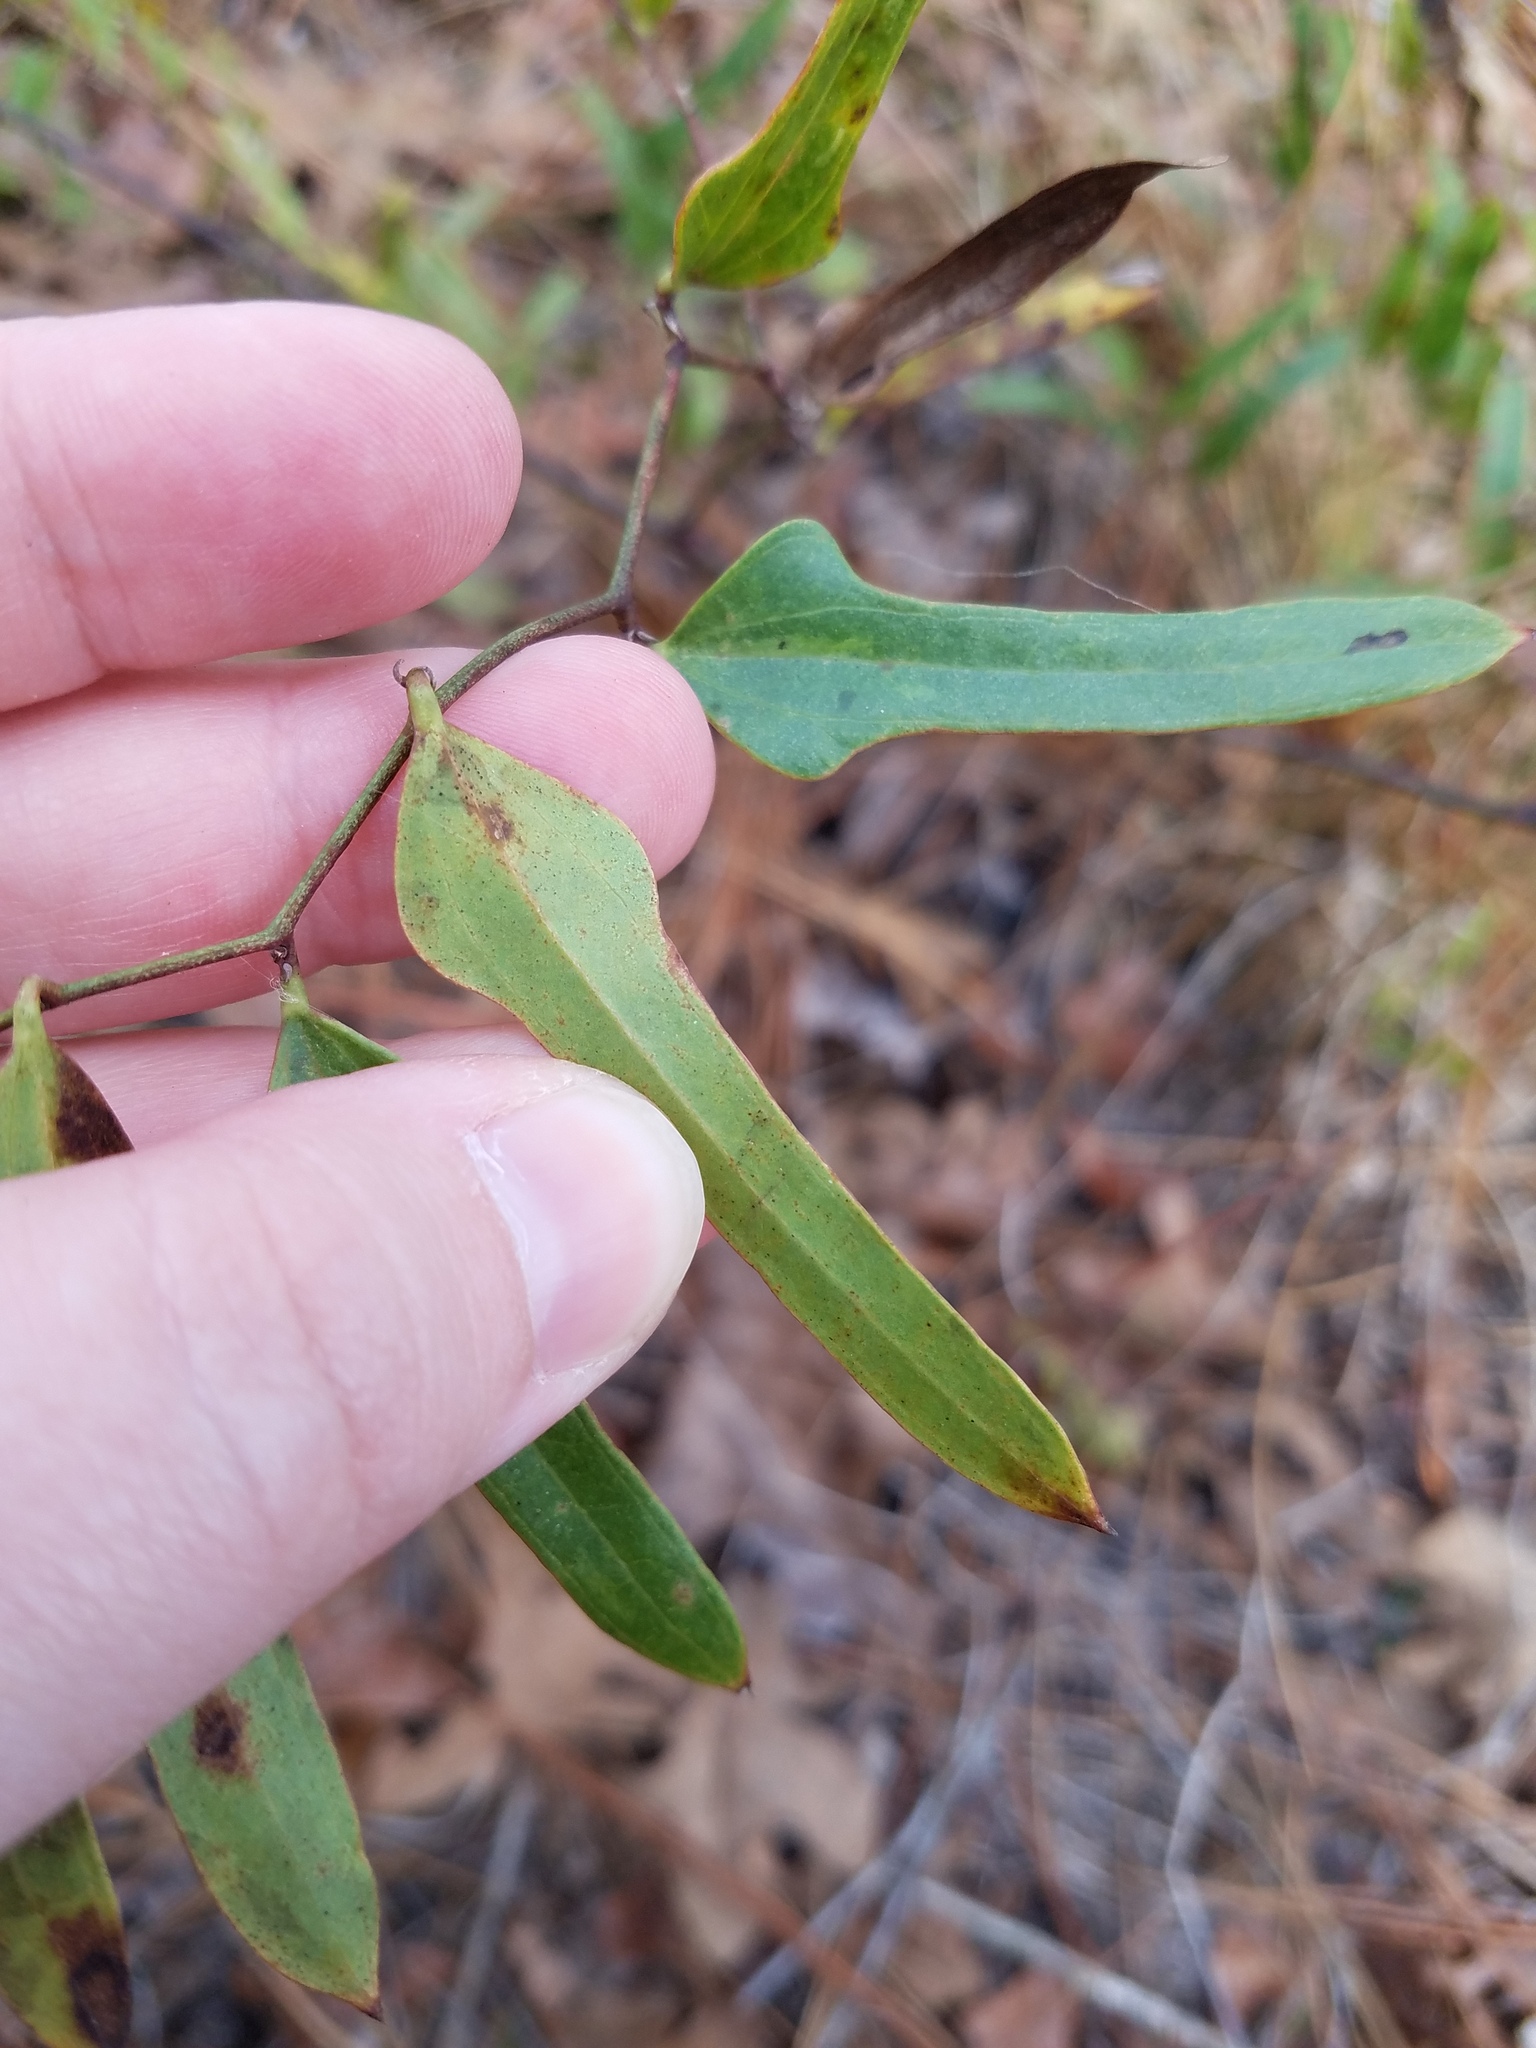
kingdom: Plantae
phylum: Tracheophyta
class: Liliopsida
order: Liliales
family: Smilacaceae
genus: Smilax
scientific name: Smilax auriculata
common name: Wild bamboo
